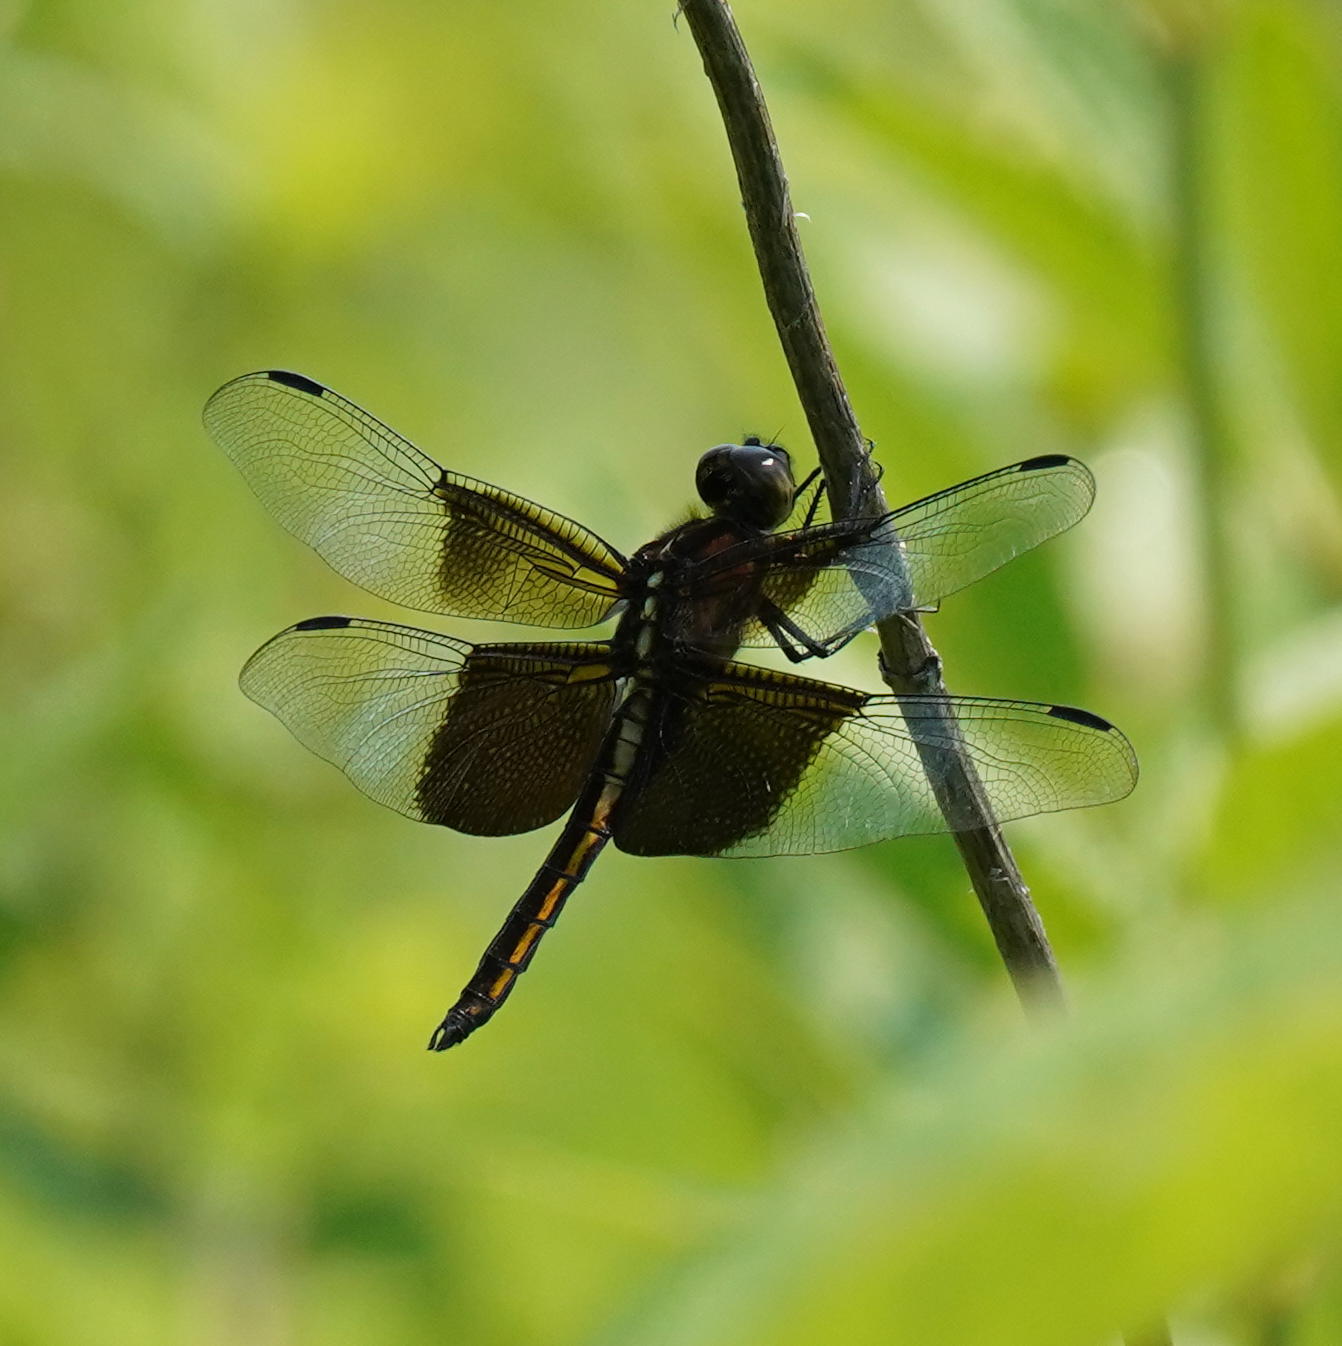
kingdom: Animalia
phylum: Arthropoda
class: Insecta
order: Odonata
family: Libellulidae
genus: Libellula
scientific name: Libellula luctuosa
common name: Widow skimmer
